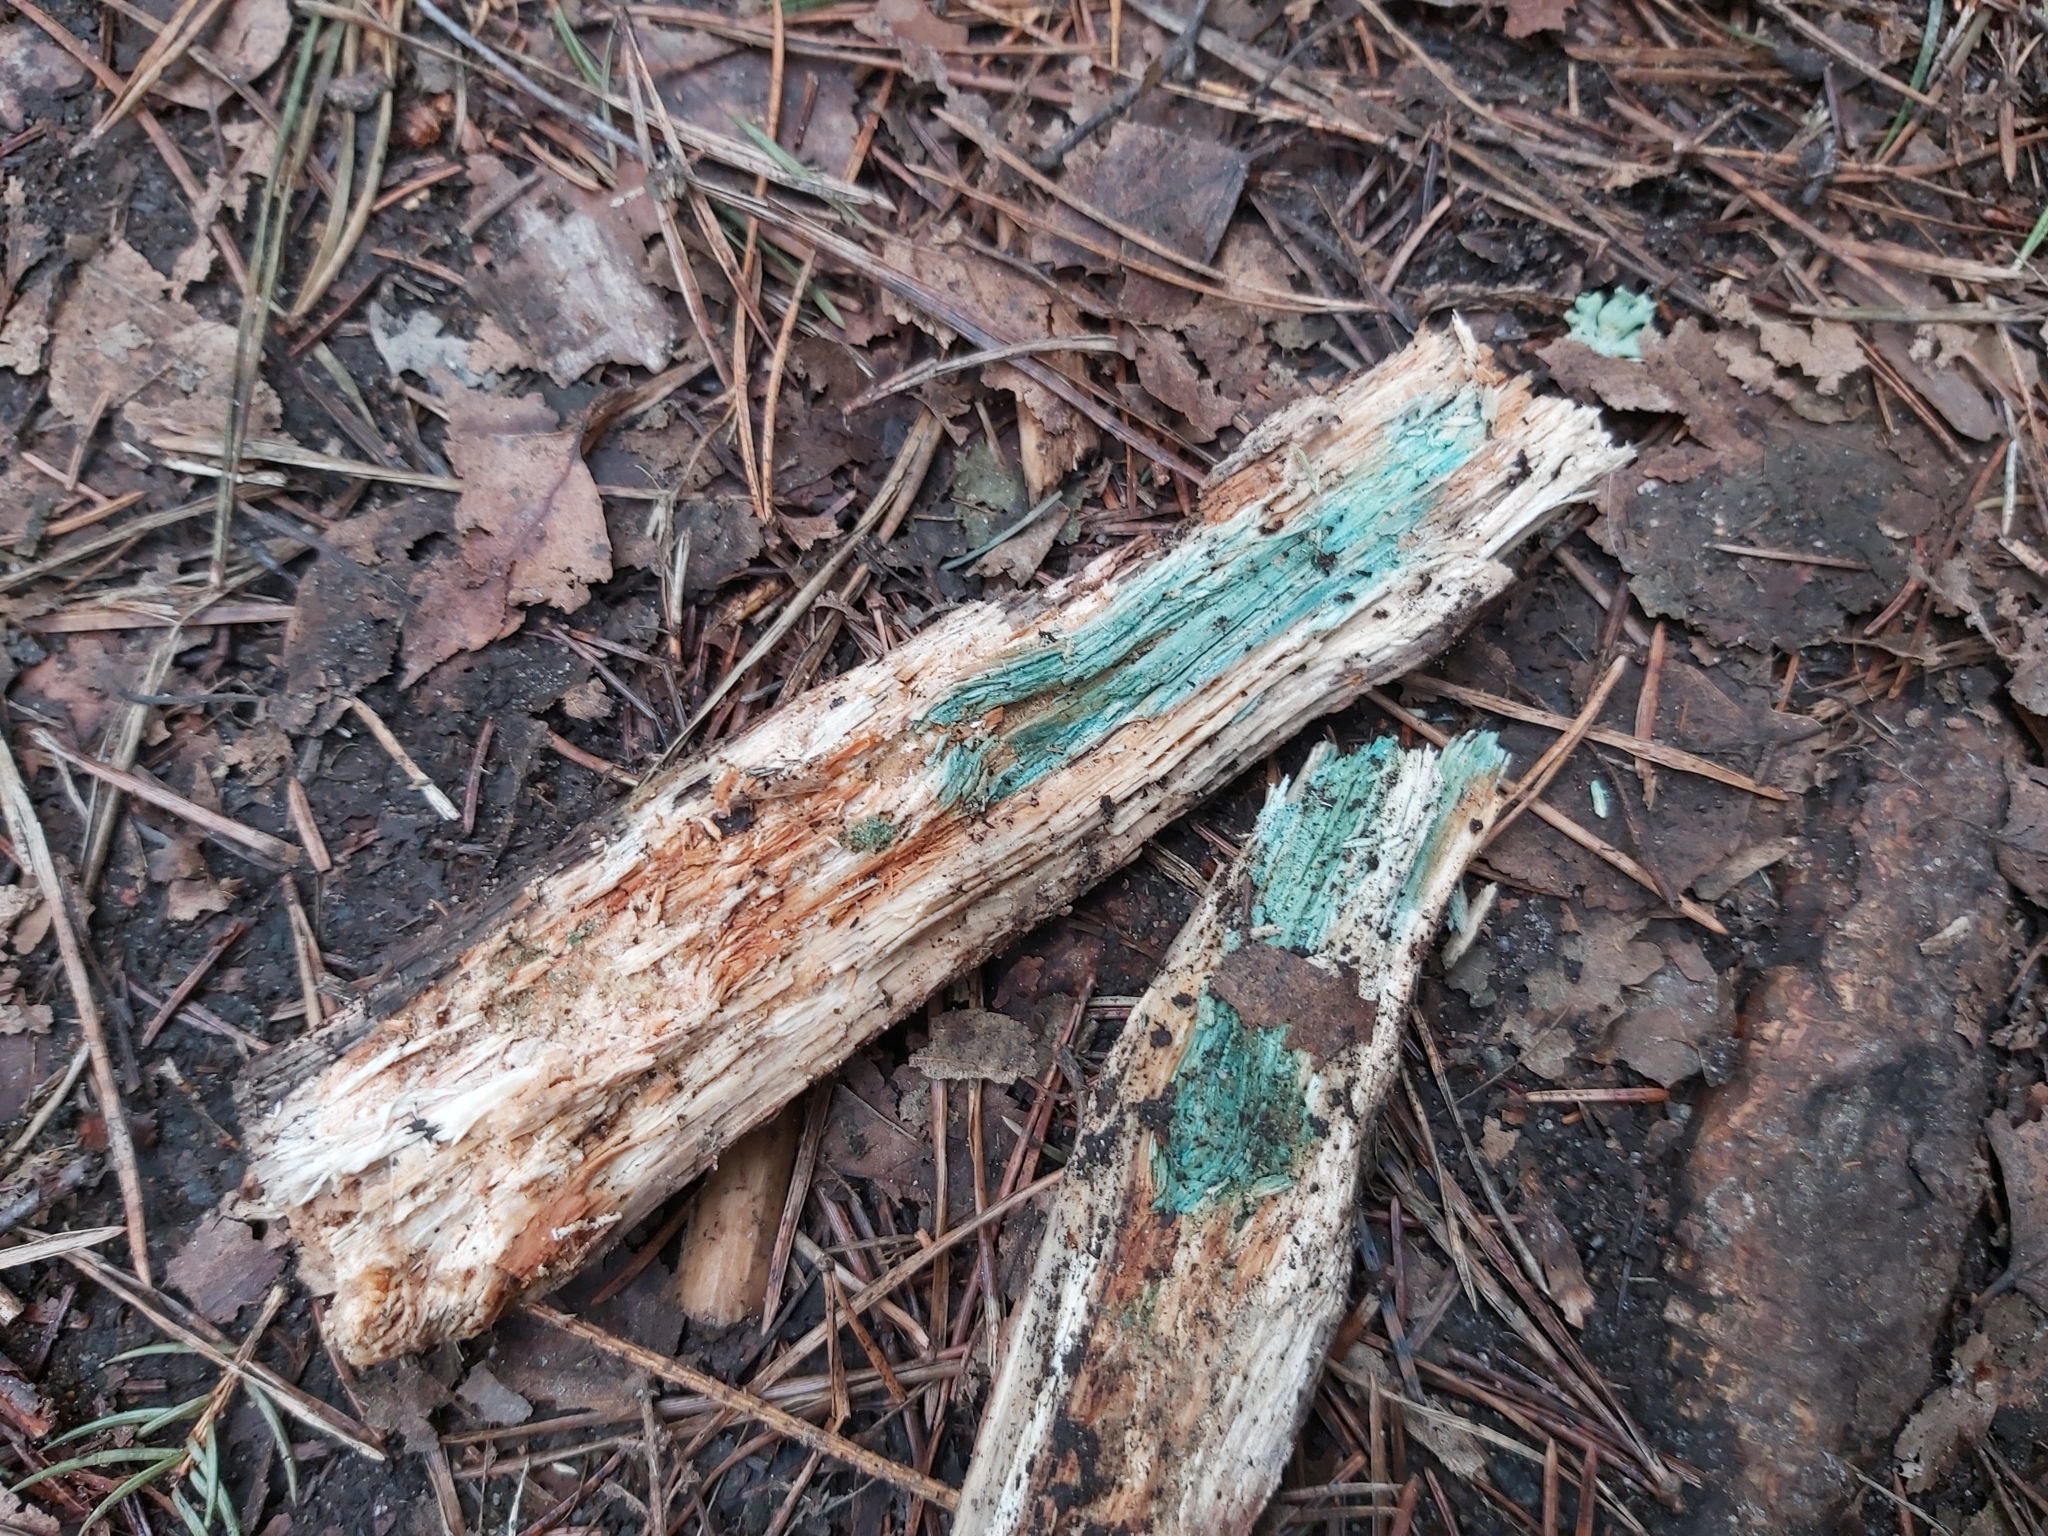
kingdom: Fungi
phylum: Ascomycota
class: Leotiomycetes
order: Helotiales
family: Chlorociboriaceae
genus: Chlorociboria
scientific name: Chlorociboria
